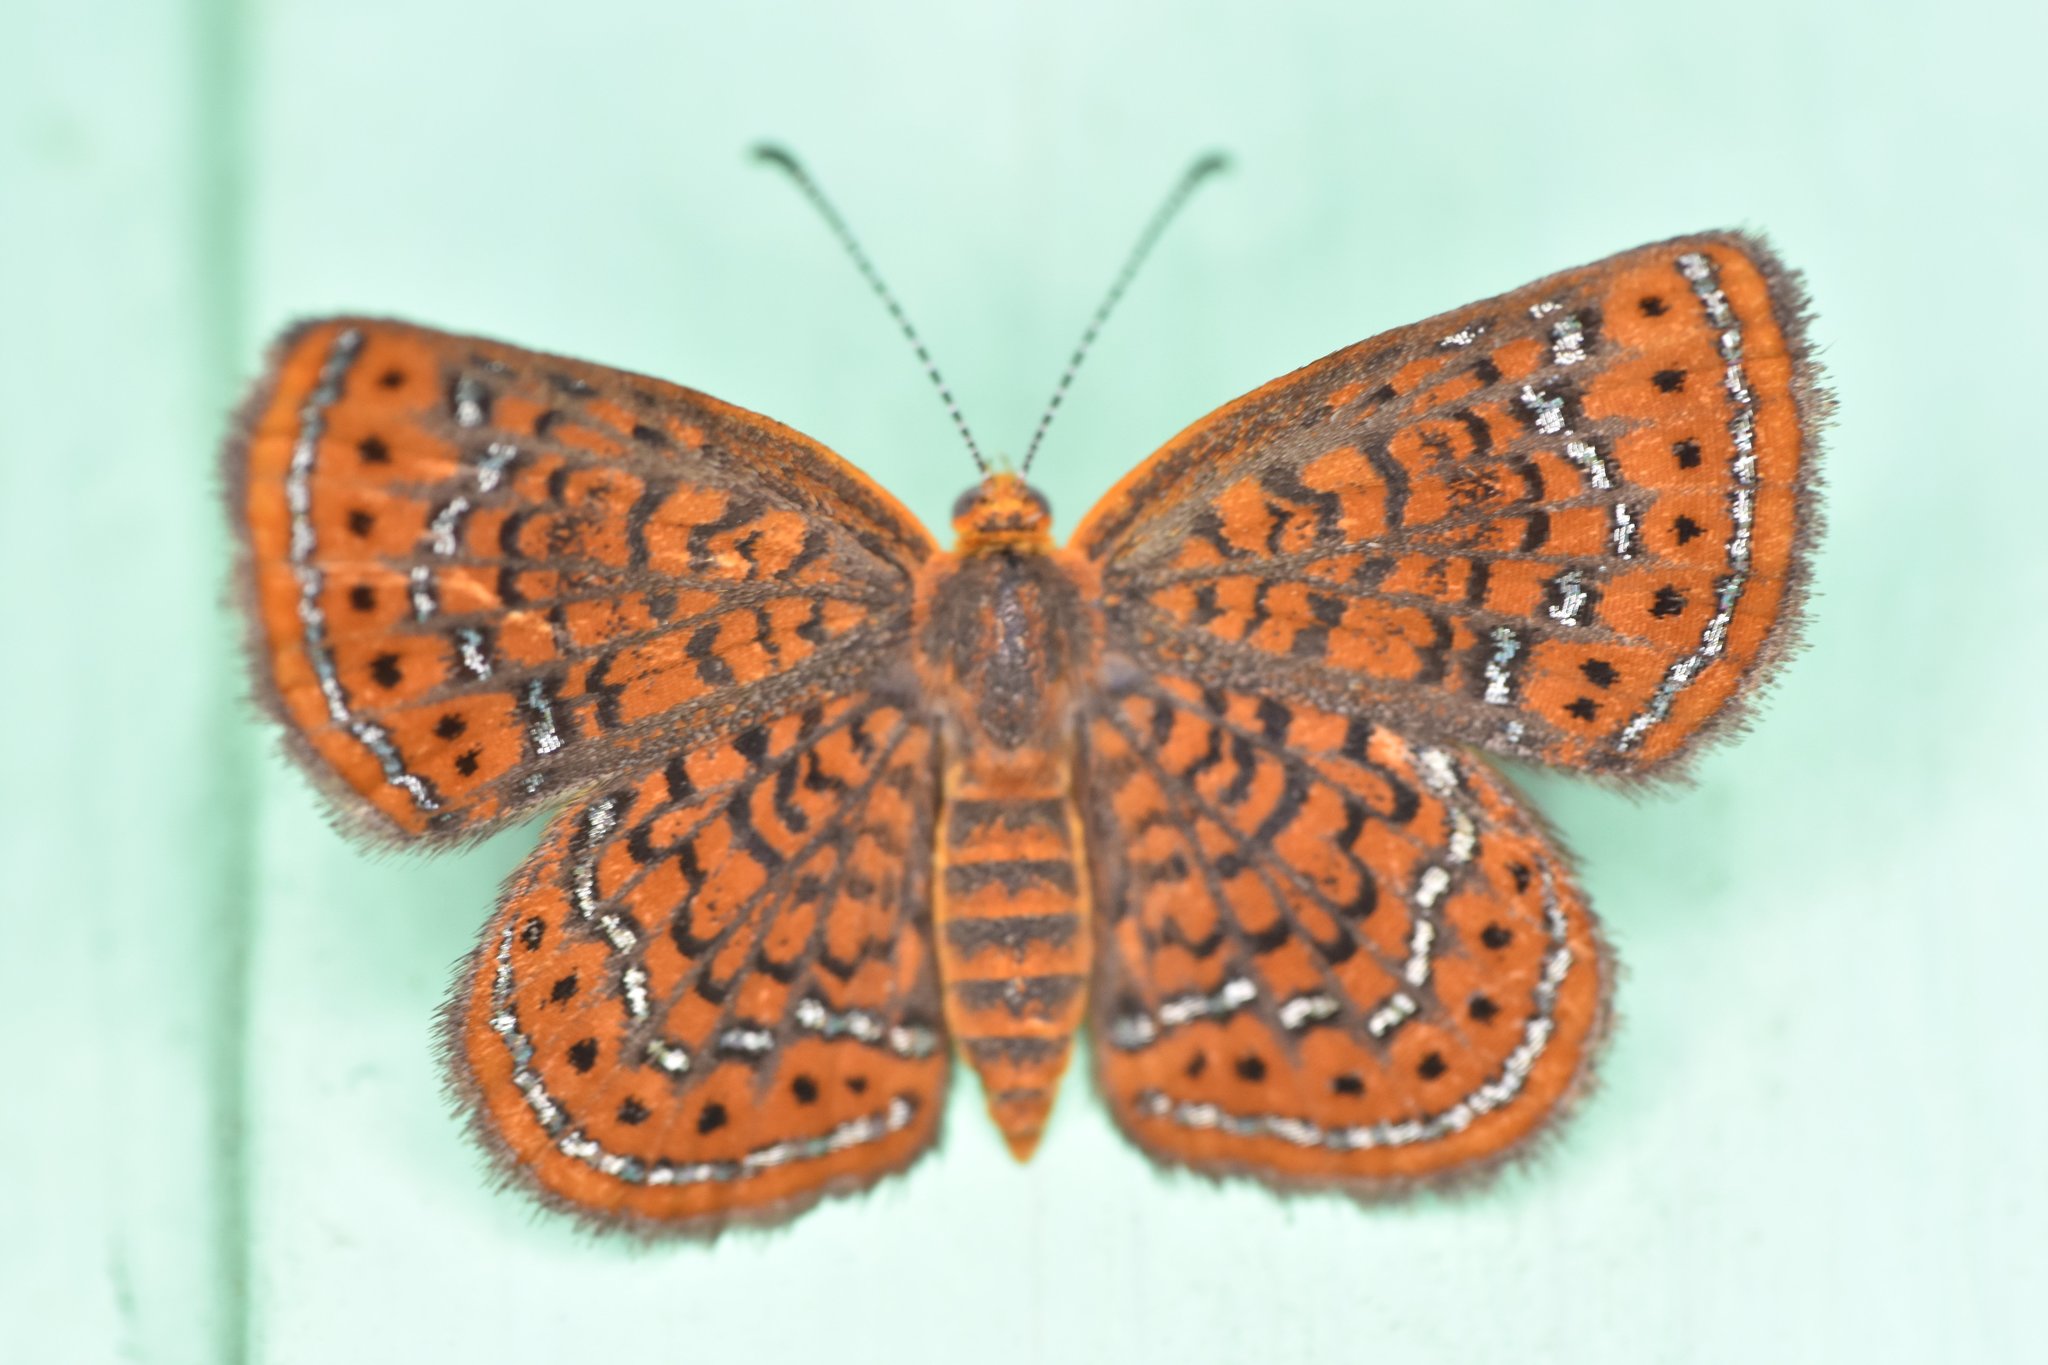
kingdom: Animalia
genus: Calephelis
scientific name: Calephelis virginiensis
